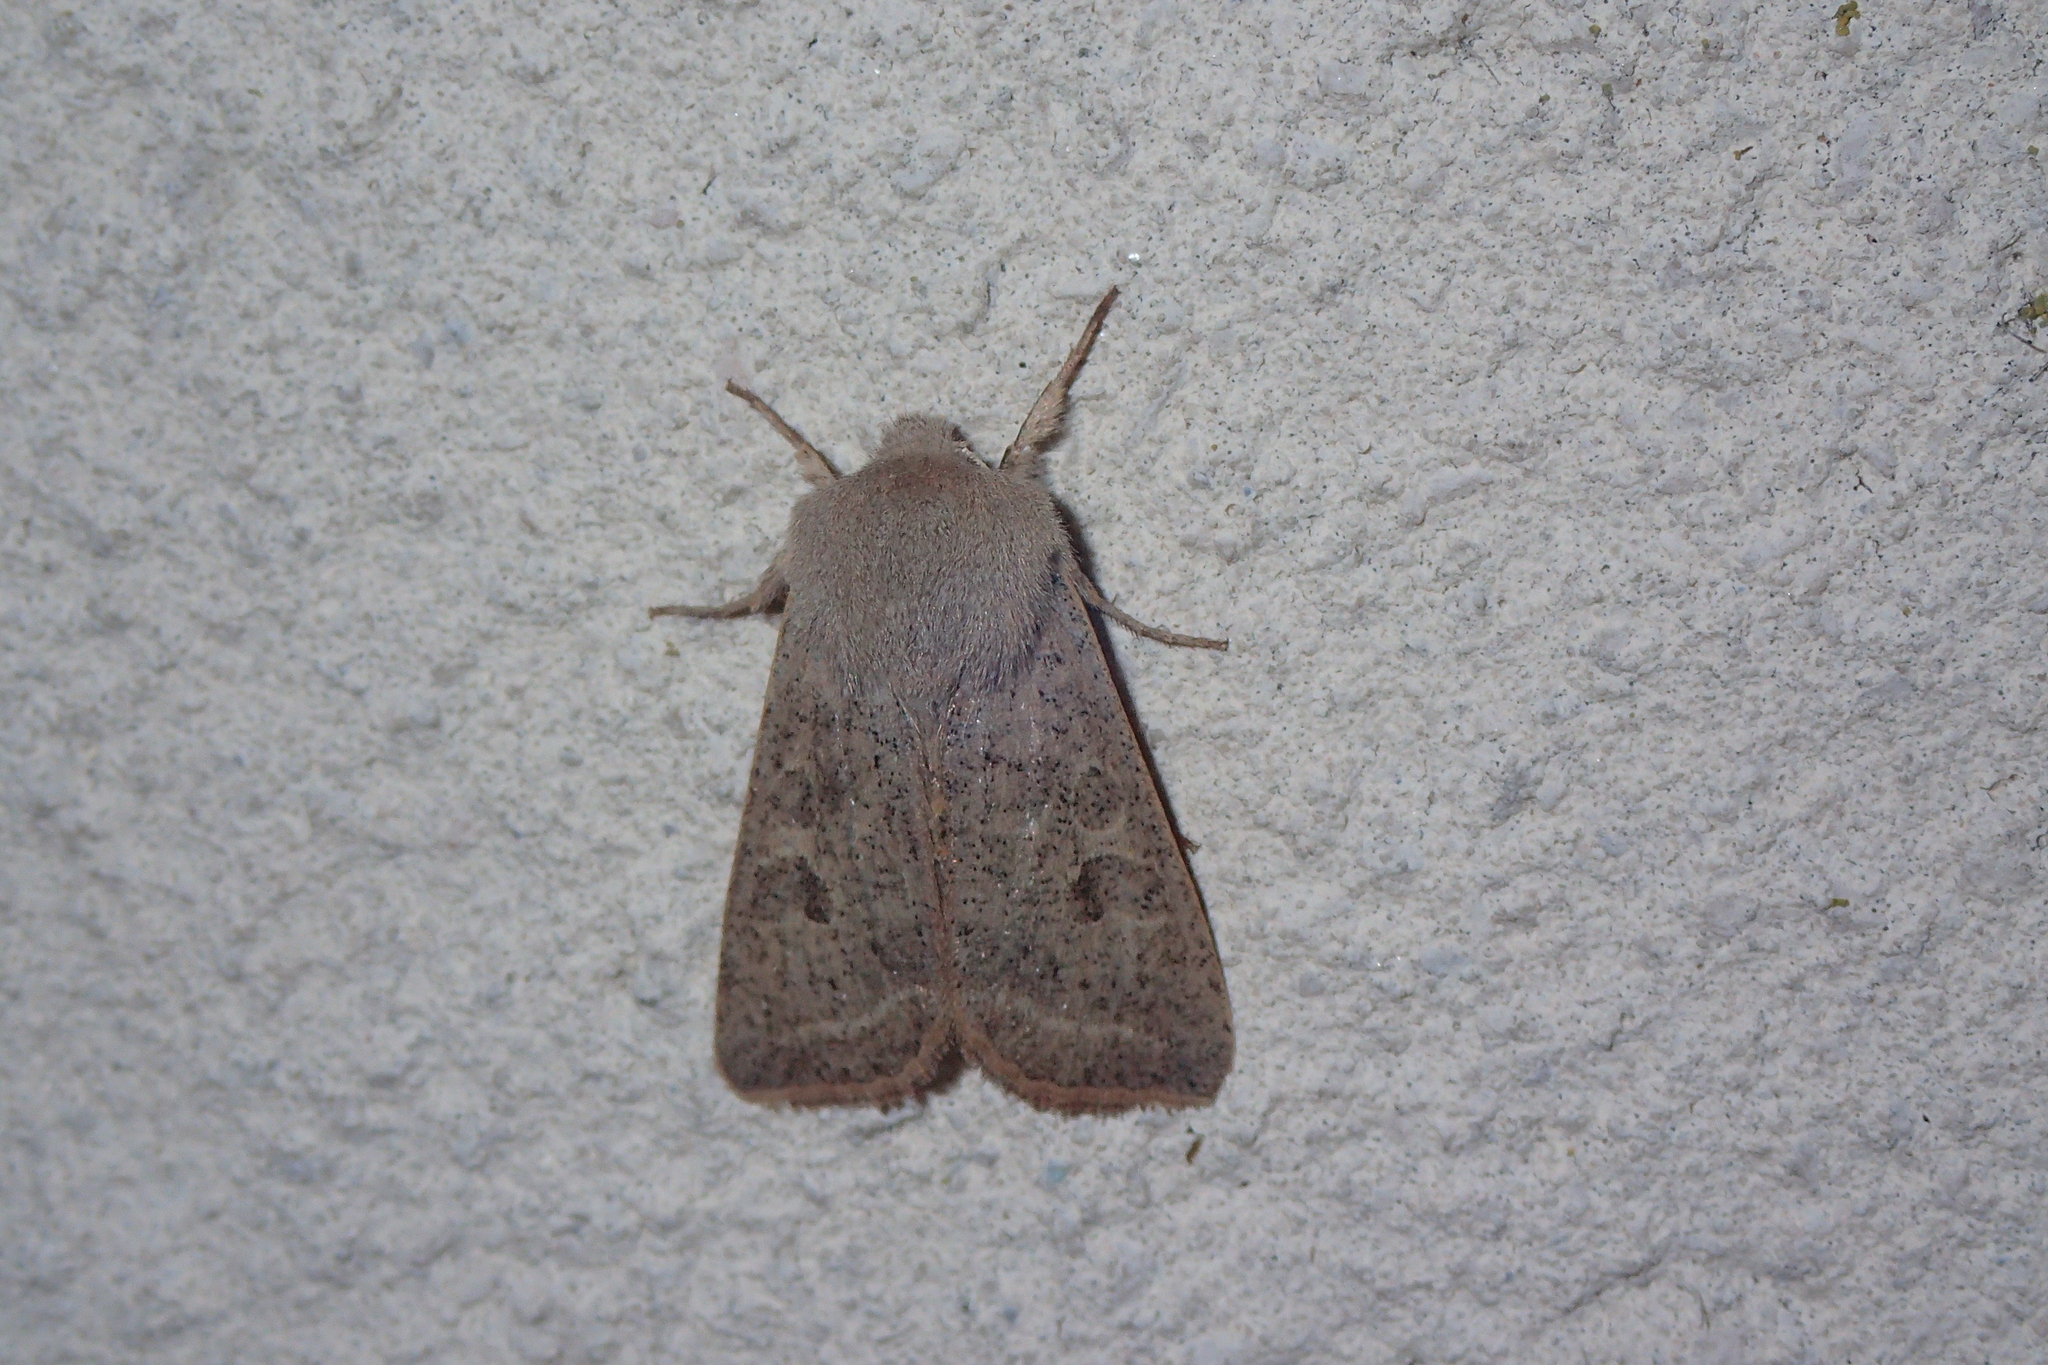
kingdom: Animalia
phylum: Arthropoda
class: Insecta
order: Lepidoptera
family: Noctuidae
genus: Orthosia
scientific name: Orthosia gracilis
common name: Powdered quaker
